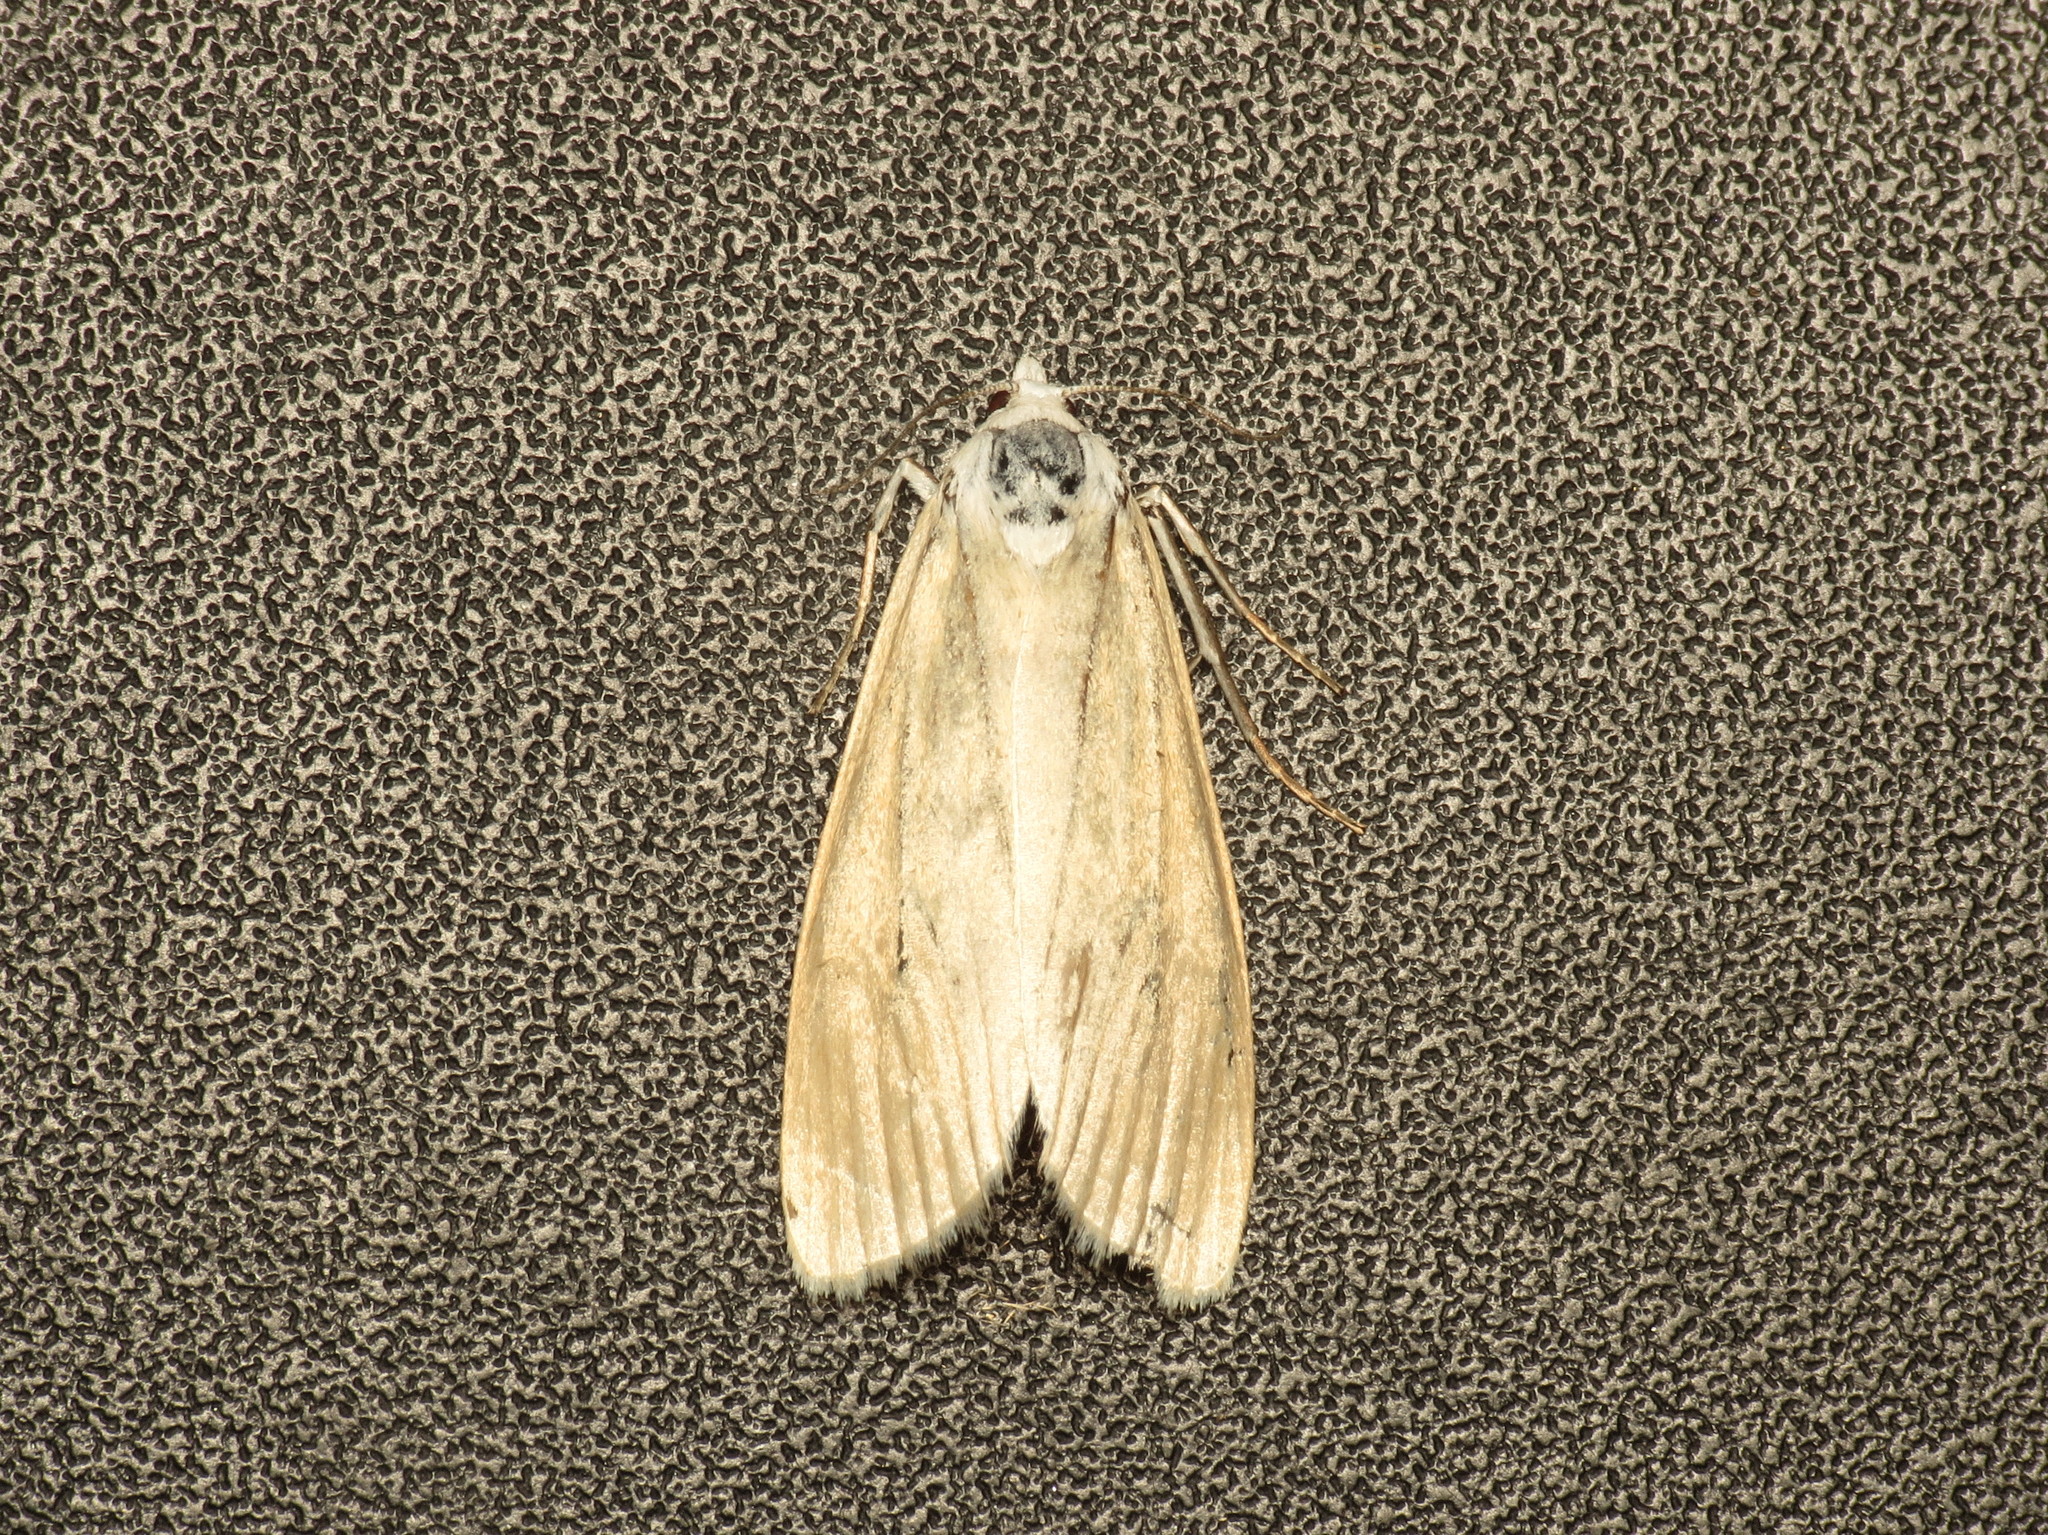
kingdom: Animalia
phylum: Arthropoda
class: Insecta
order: Lepidoptera
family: Crambidae
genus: Scirpophaga
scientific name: Scirpophaga imparellus
